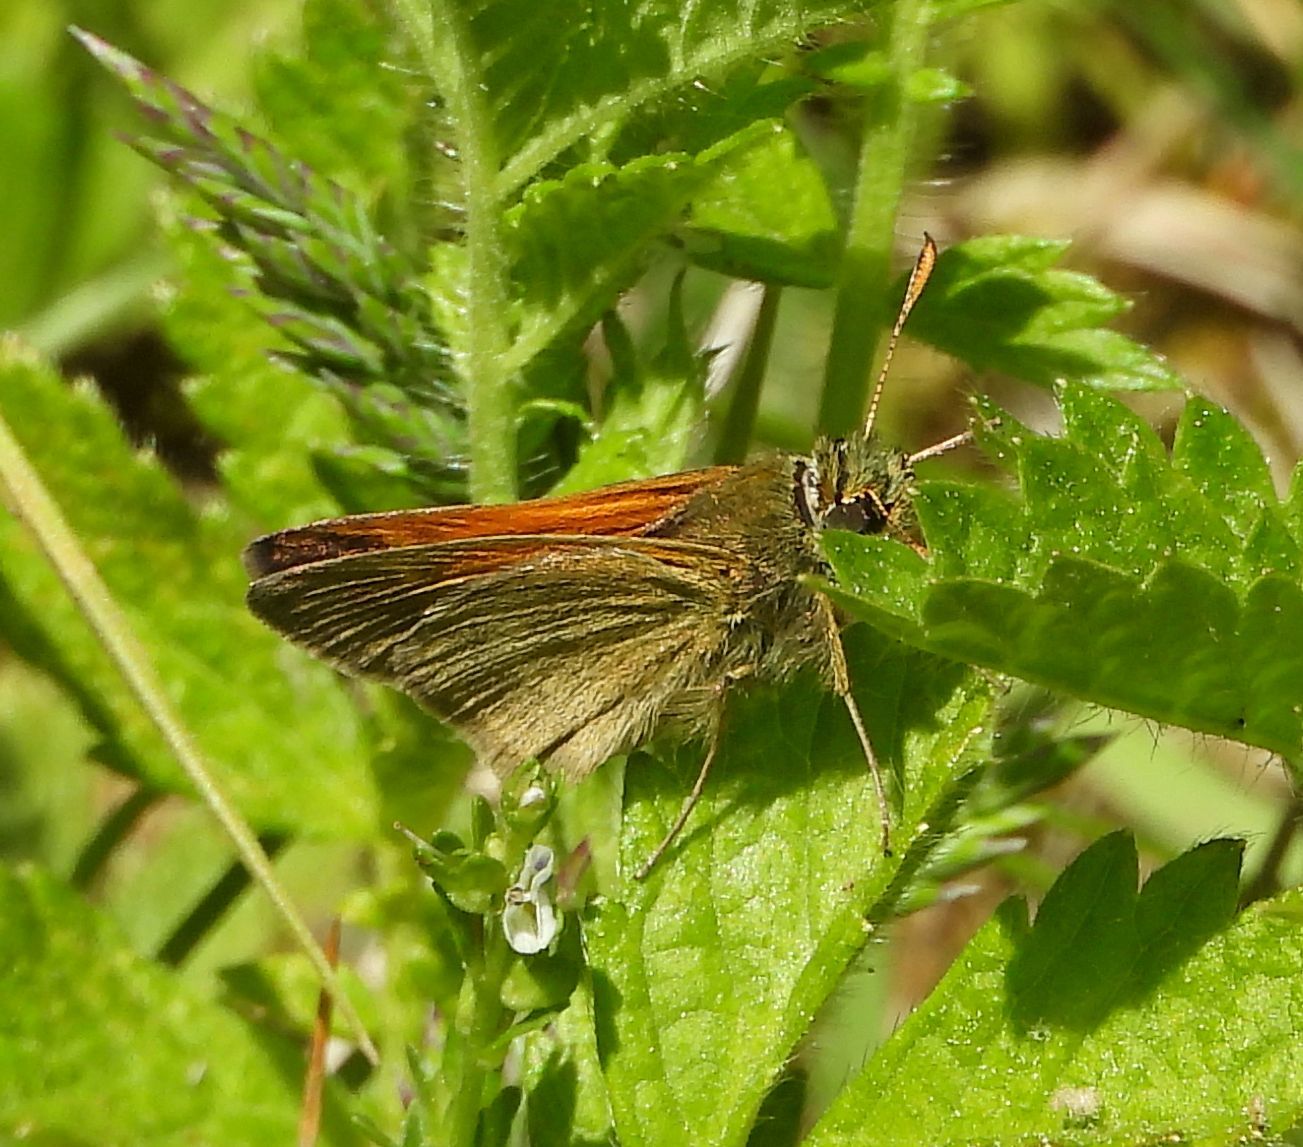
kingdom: Animalia
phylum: Arthropoda
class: Insecta
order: Lepidoptera
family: Hesperiidae
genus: Polites
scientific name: Polites themistocles
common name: Tawny-edged skipper
